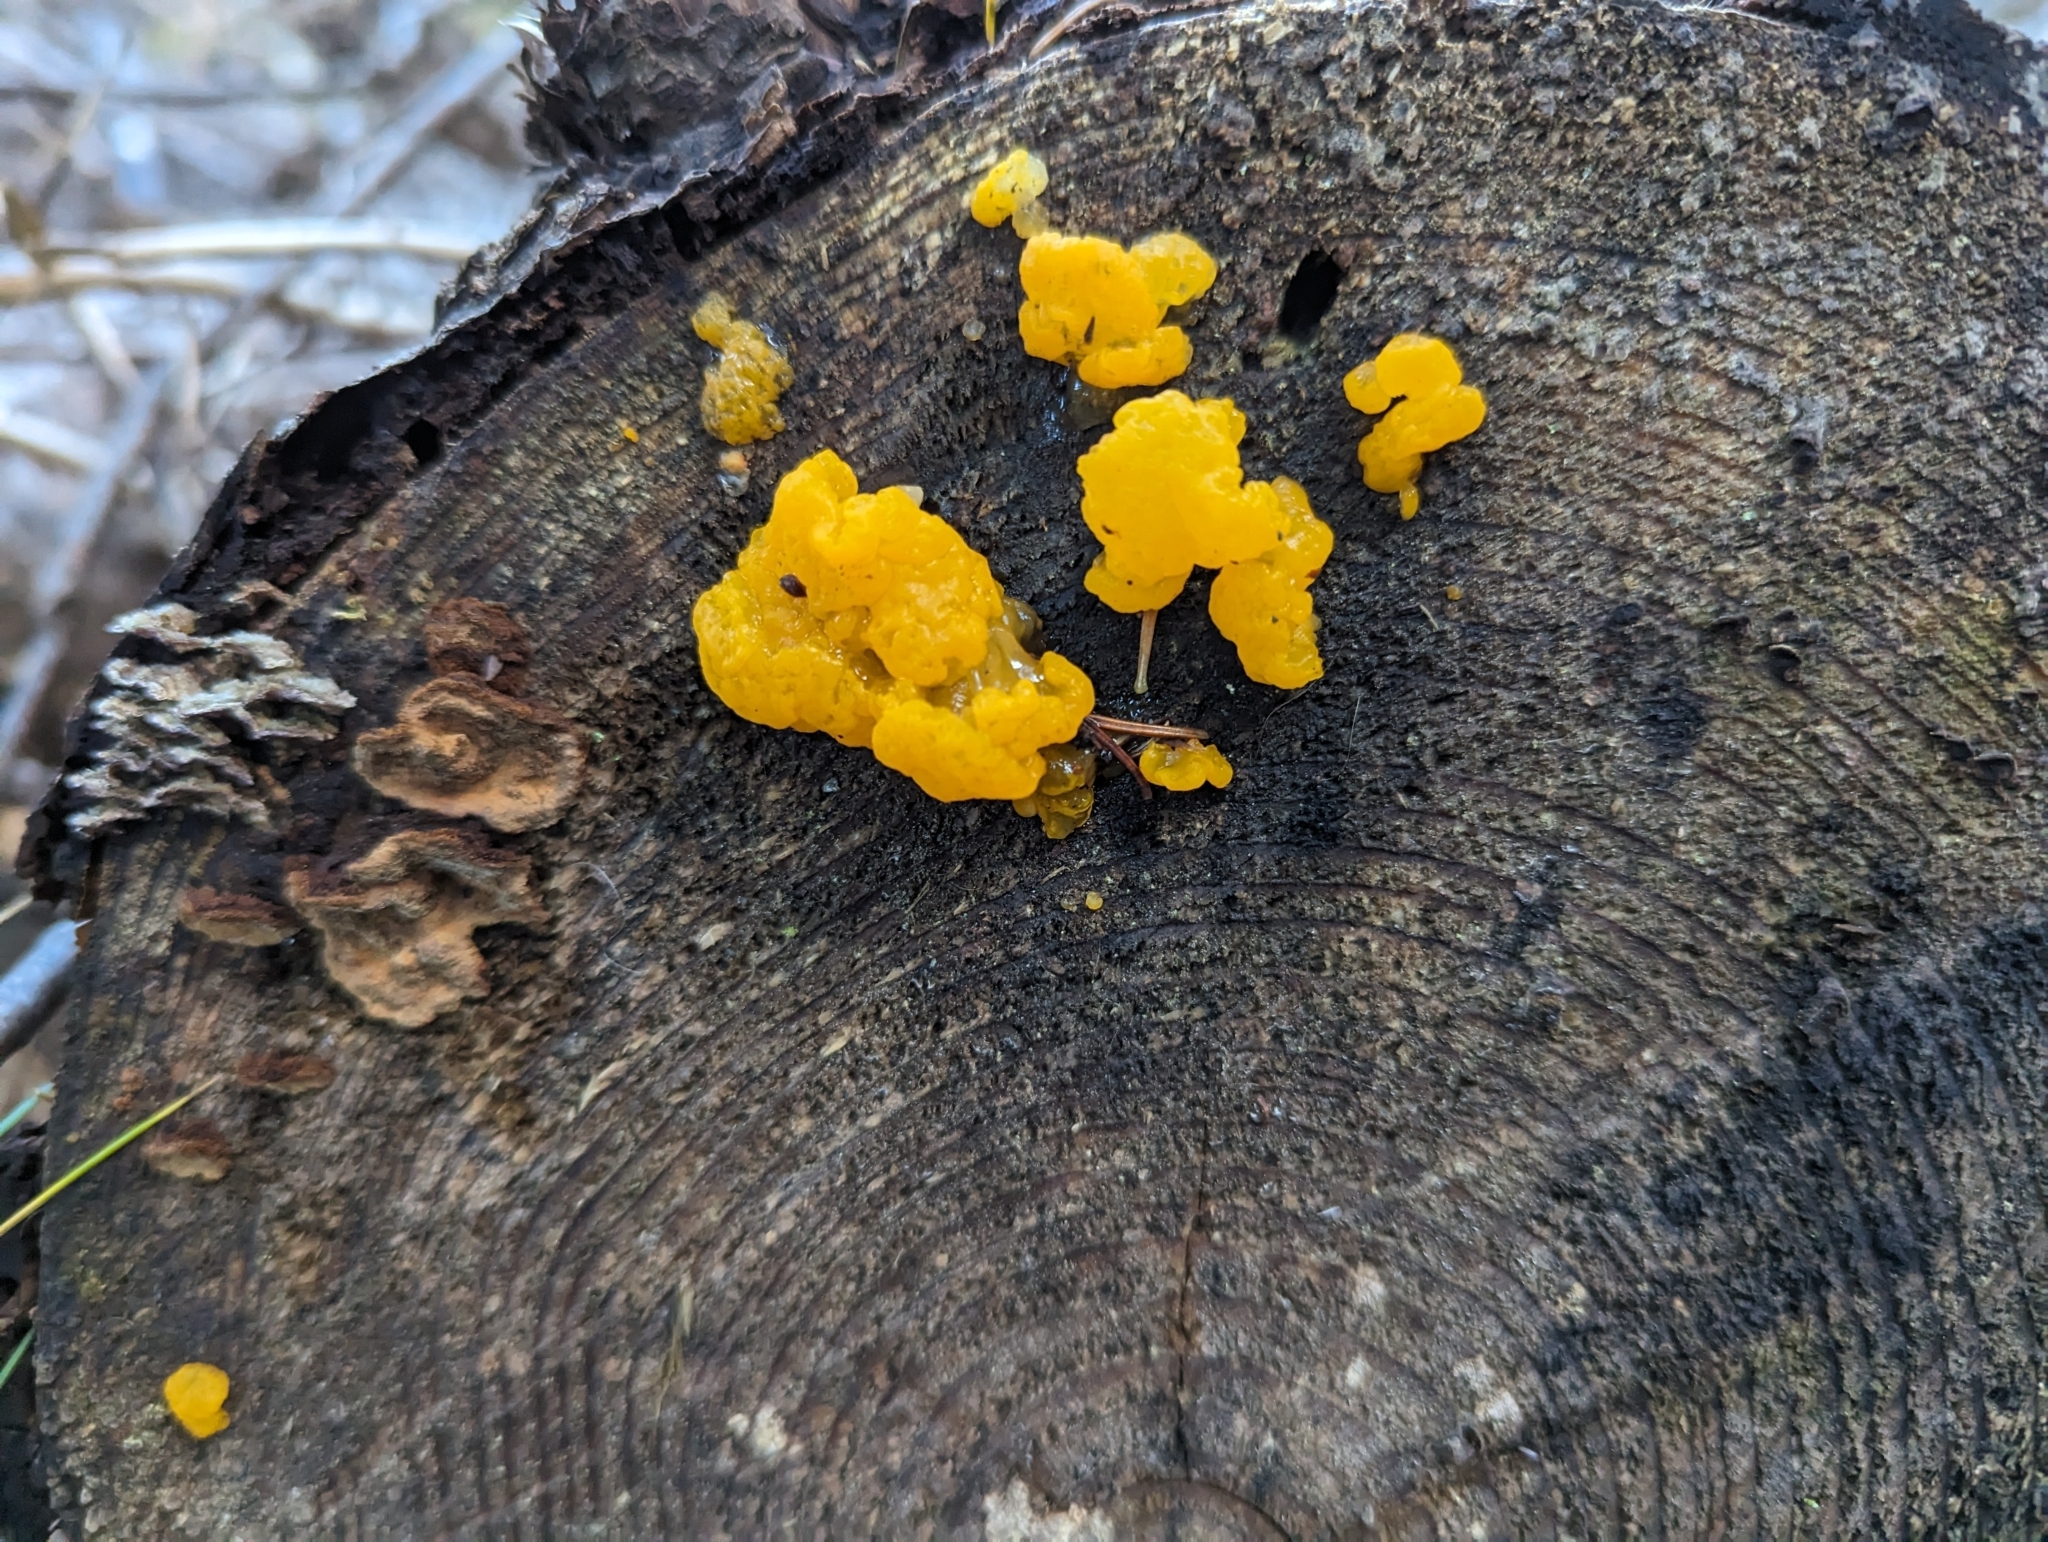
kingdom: Fungi
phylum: Basidiomycota
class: Dacrymycetes
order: Dacrymycetales
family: Dacrymycetaceae
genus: Dacrymyces
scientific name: Dacrymyces chrysospermus
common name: Orange jelly spot
